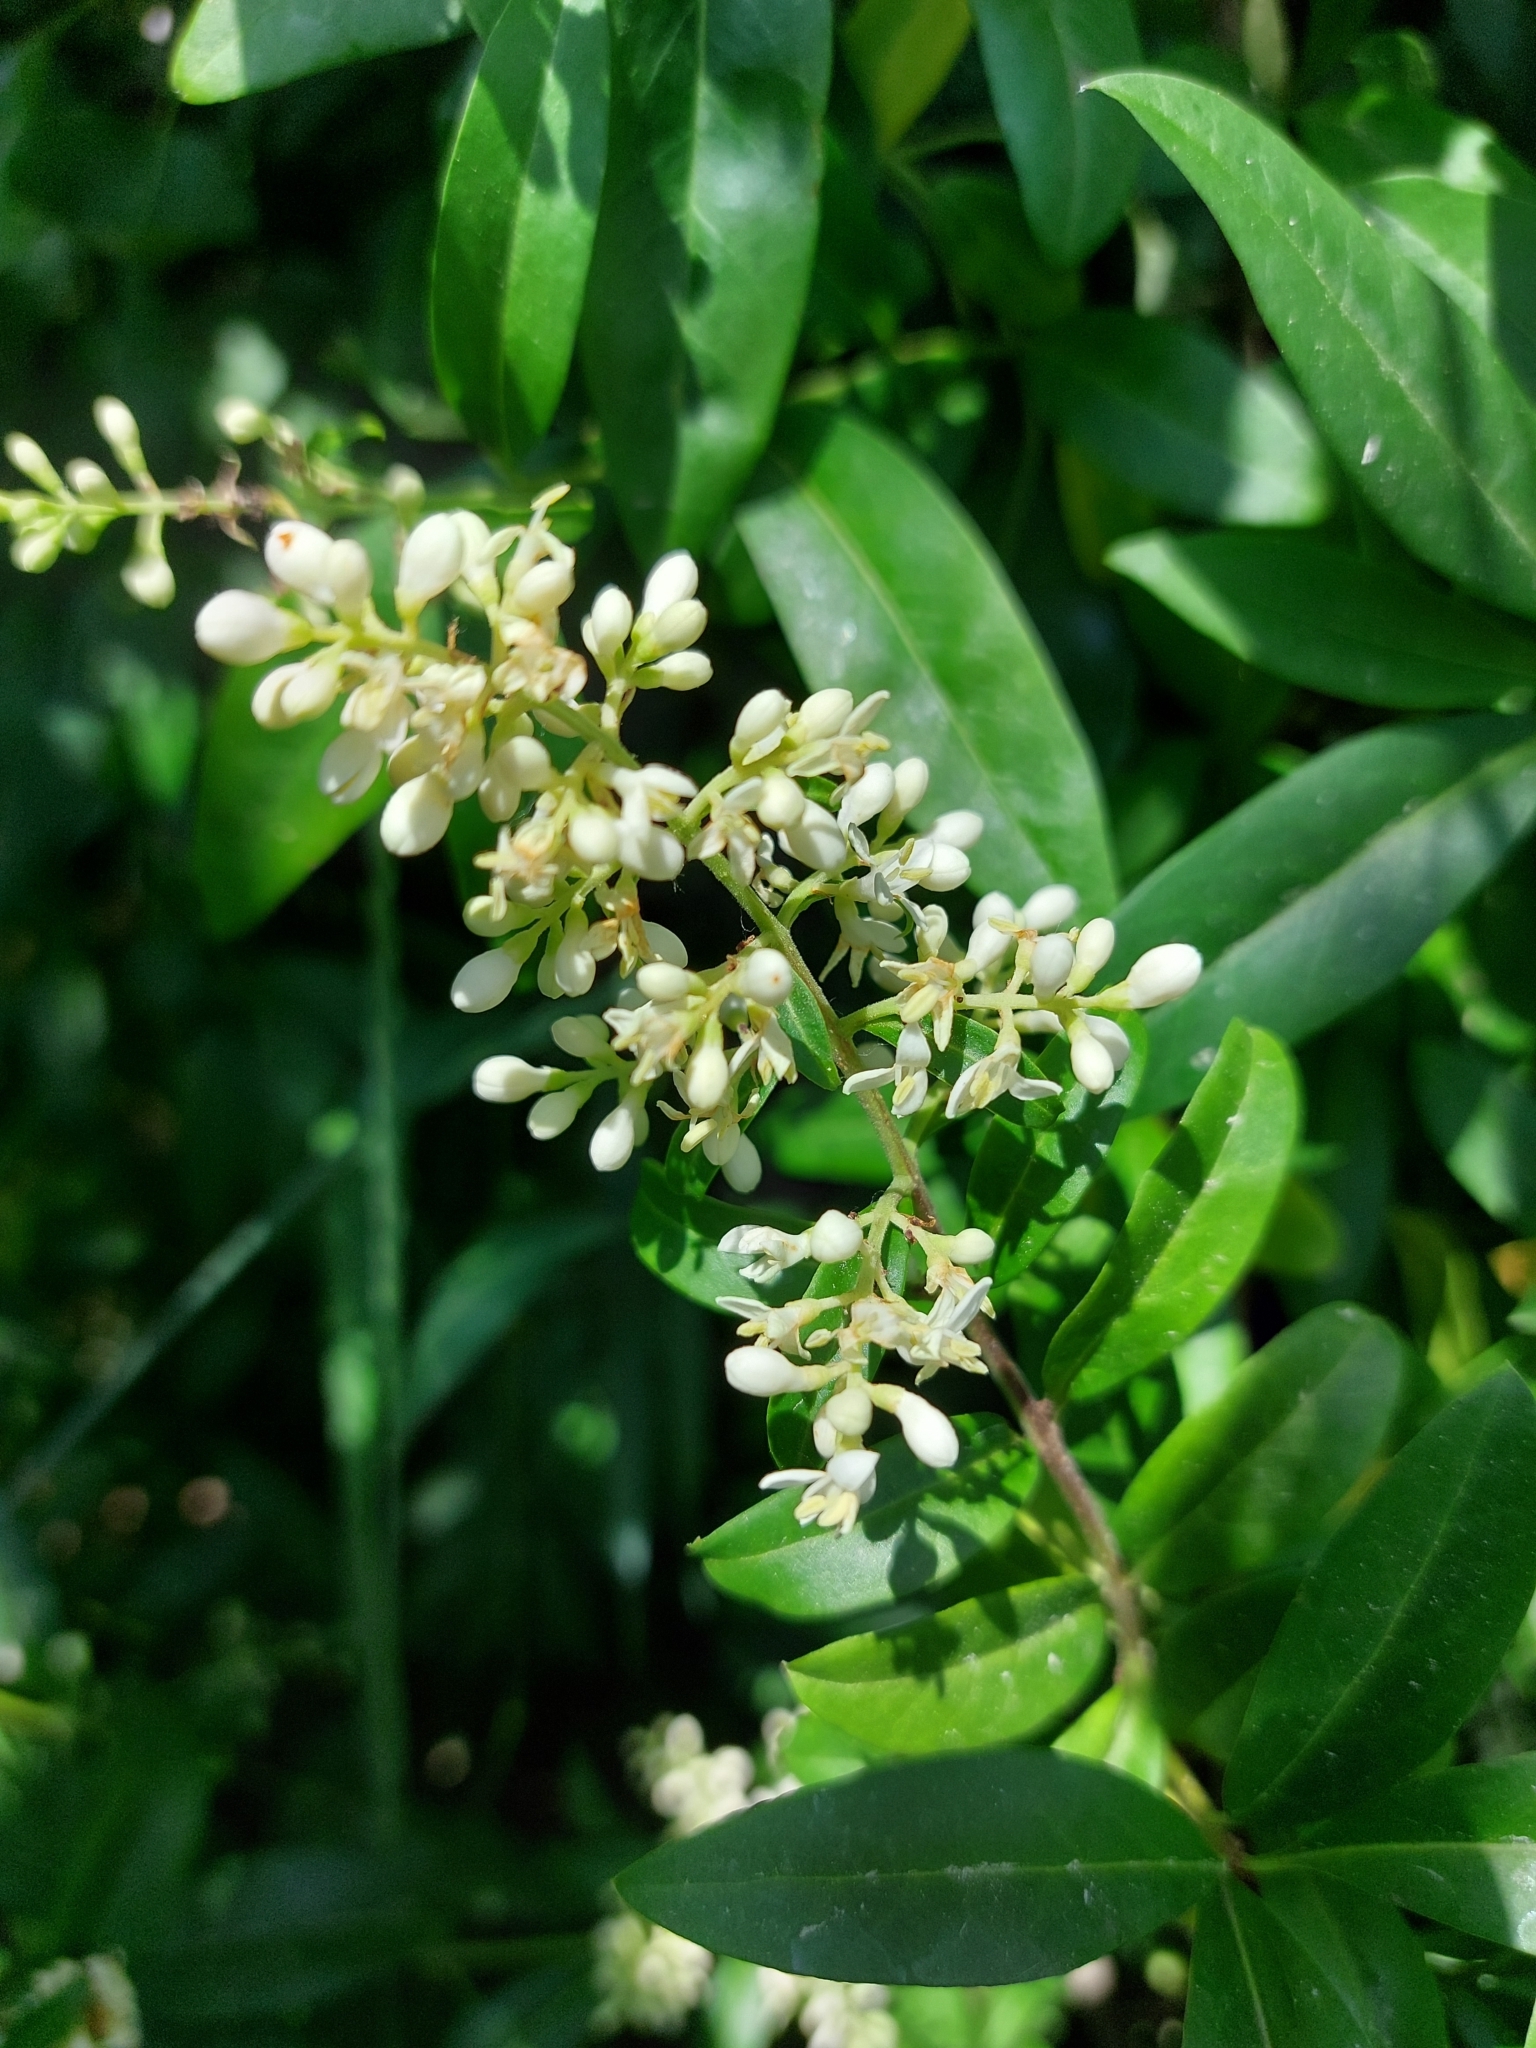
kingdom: Plantae
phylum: Tracheophyta
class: Magnoliopsida
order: Lamiales
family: Oleaceae
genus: Ligustrum
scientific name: Ligustrum vulgare
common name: Wild privet
